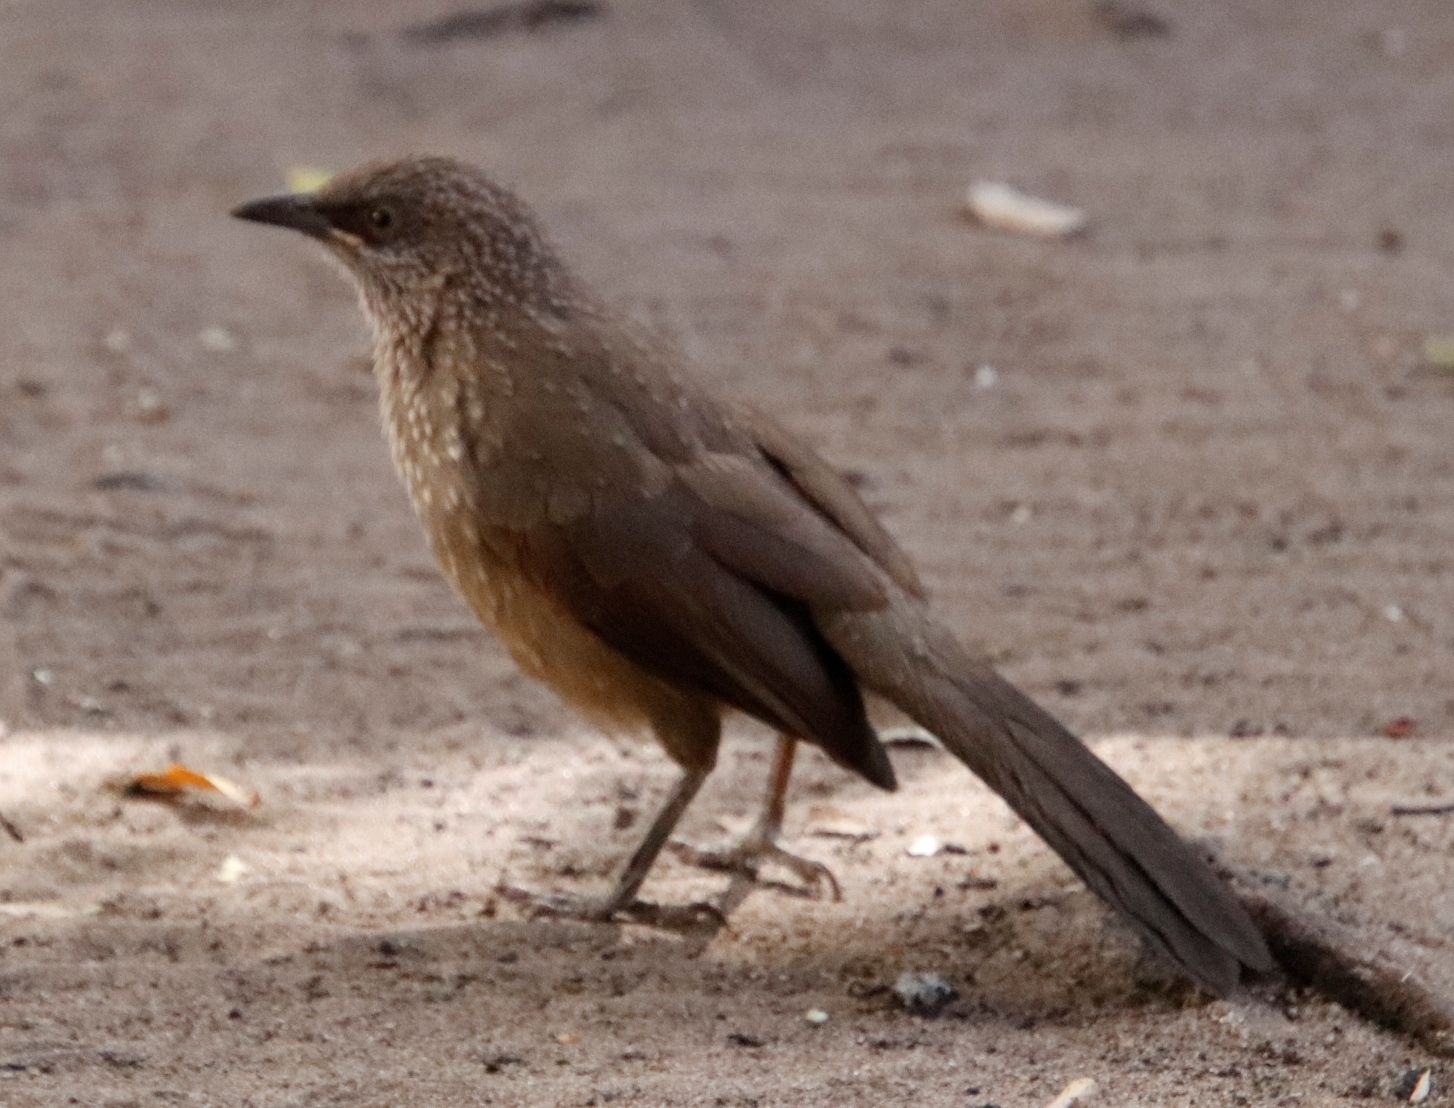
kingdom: Animalia
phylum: Chordata
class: Aves
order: Passeriformes
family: Leiothrichidae
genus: Turdoides
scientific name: Turdoides jardineii
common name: Arrow-marked babbler
